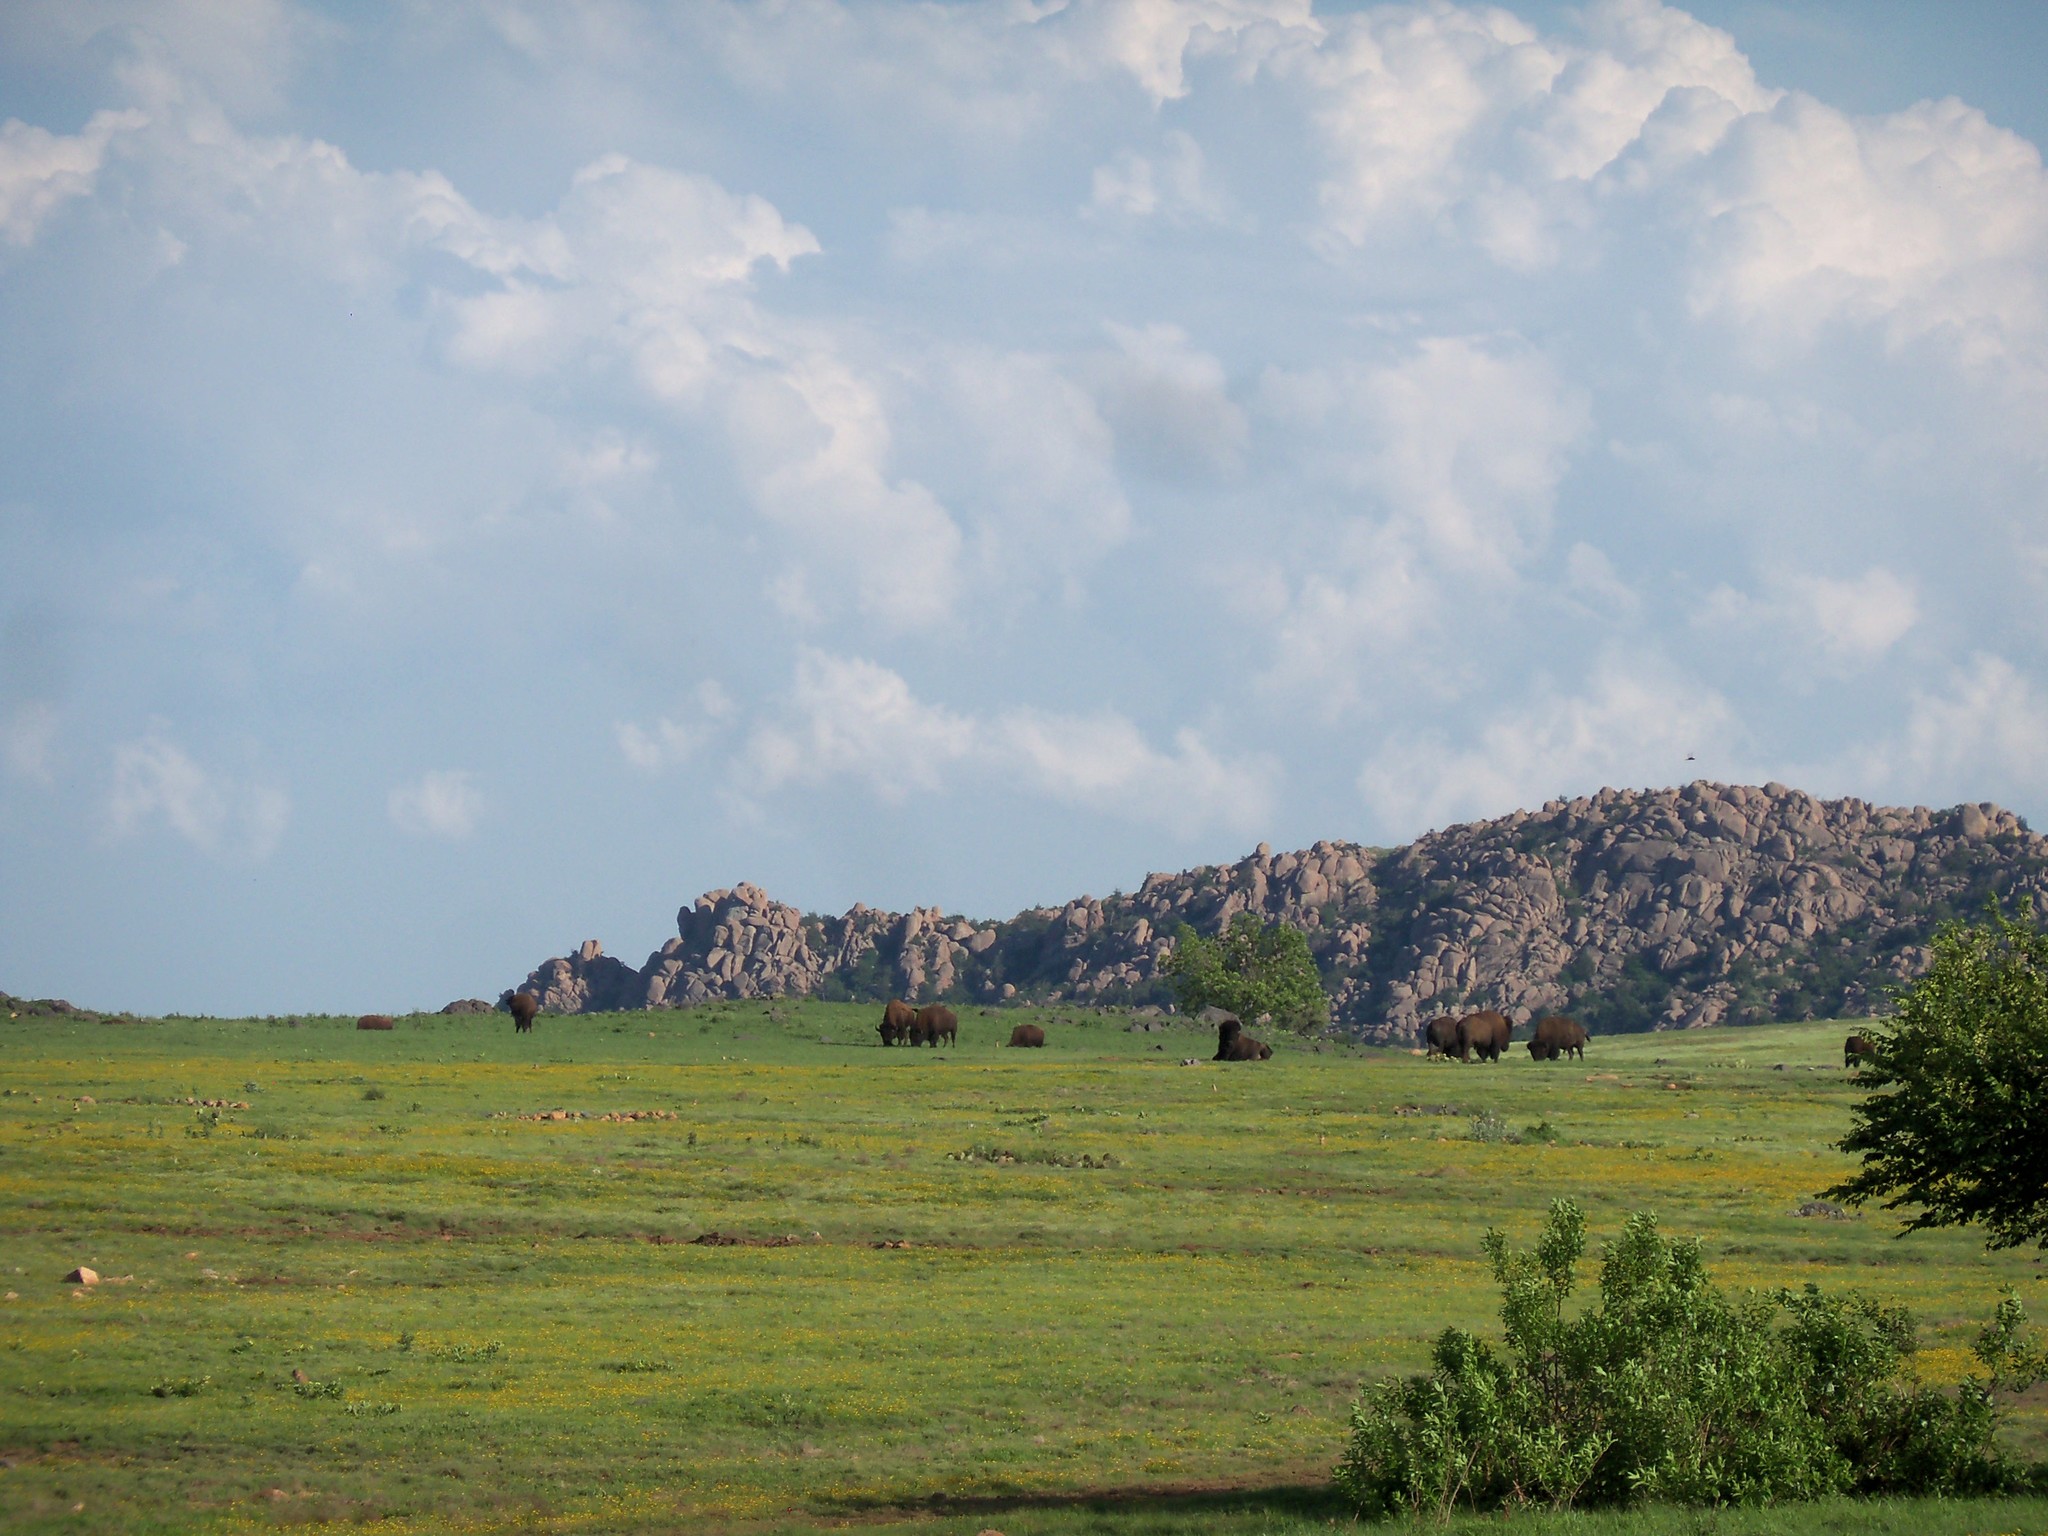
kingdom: Animalia
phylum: Chordata
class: Mammalia
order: Artiodactyla
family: Bovidae
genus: Bison
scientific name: Bison bison
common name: American bison
